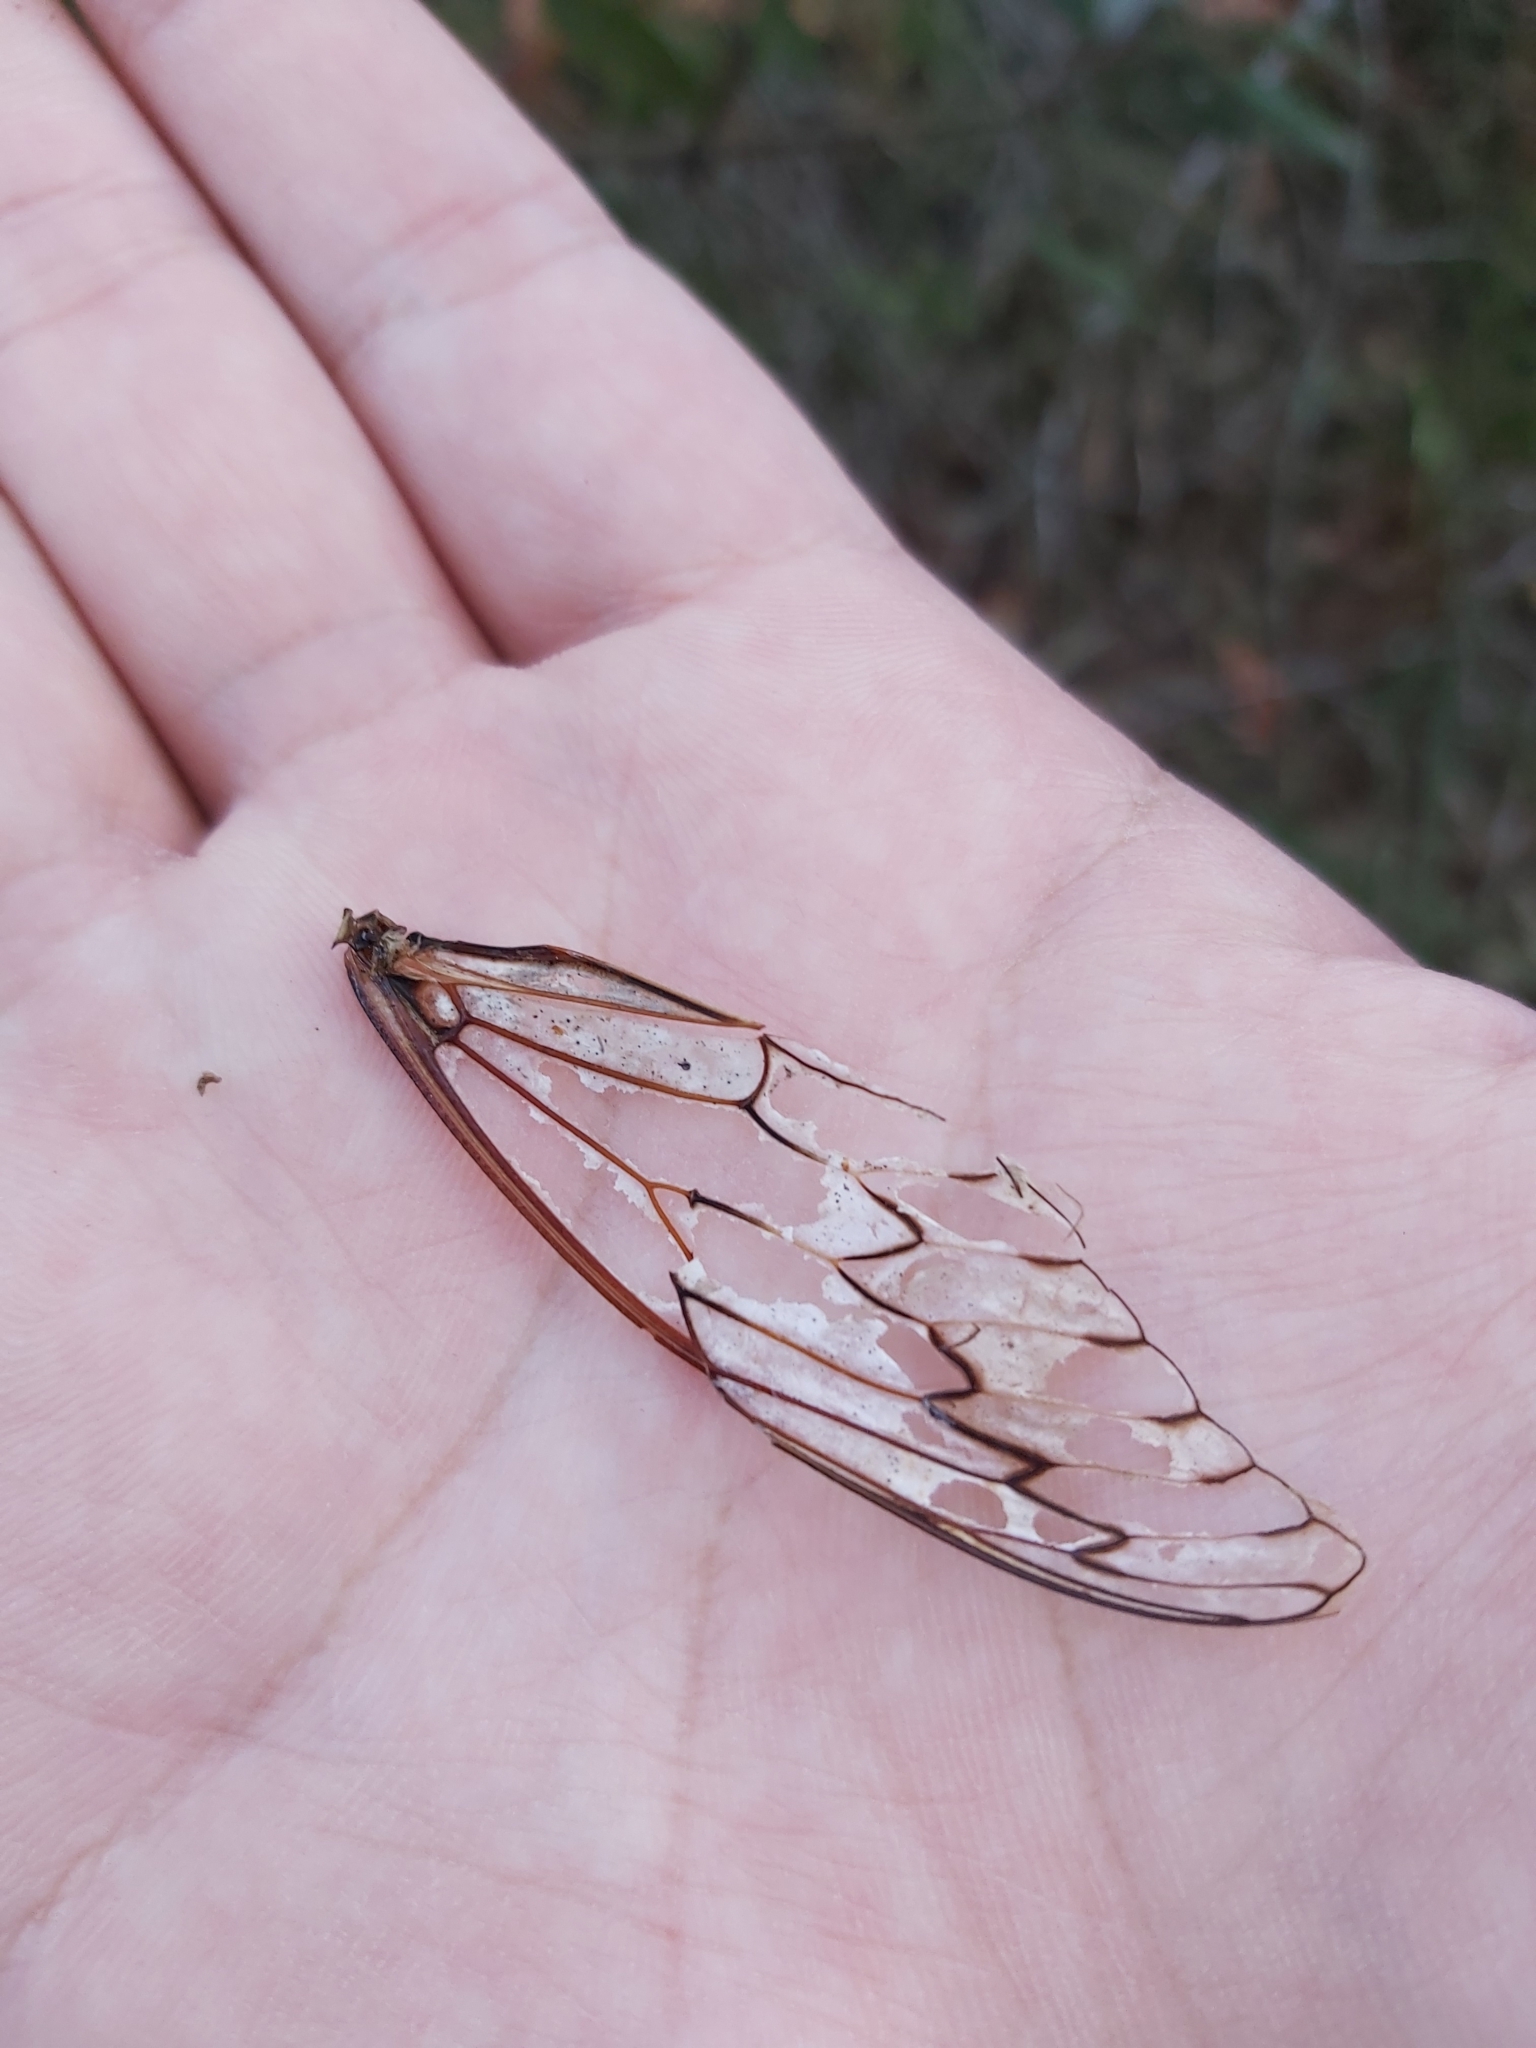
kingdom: Animalia
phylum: Arthropoda
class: Insecta
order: Hemiptera
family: Cicadidae
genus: Henicopsaltria
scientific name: Henicopsaltria eydouxii
